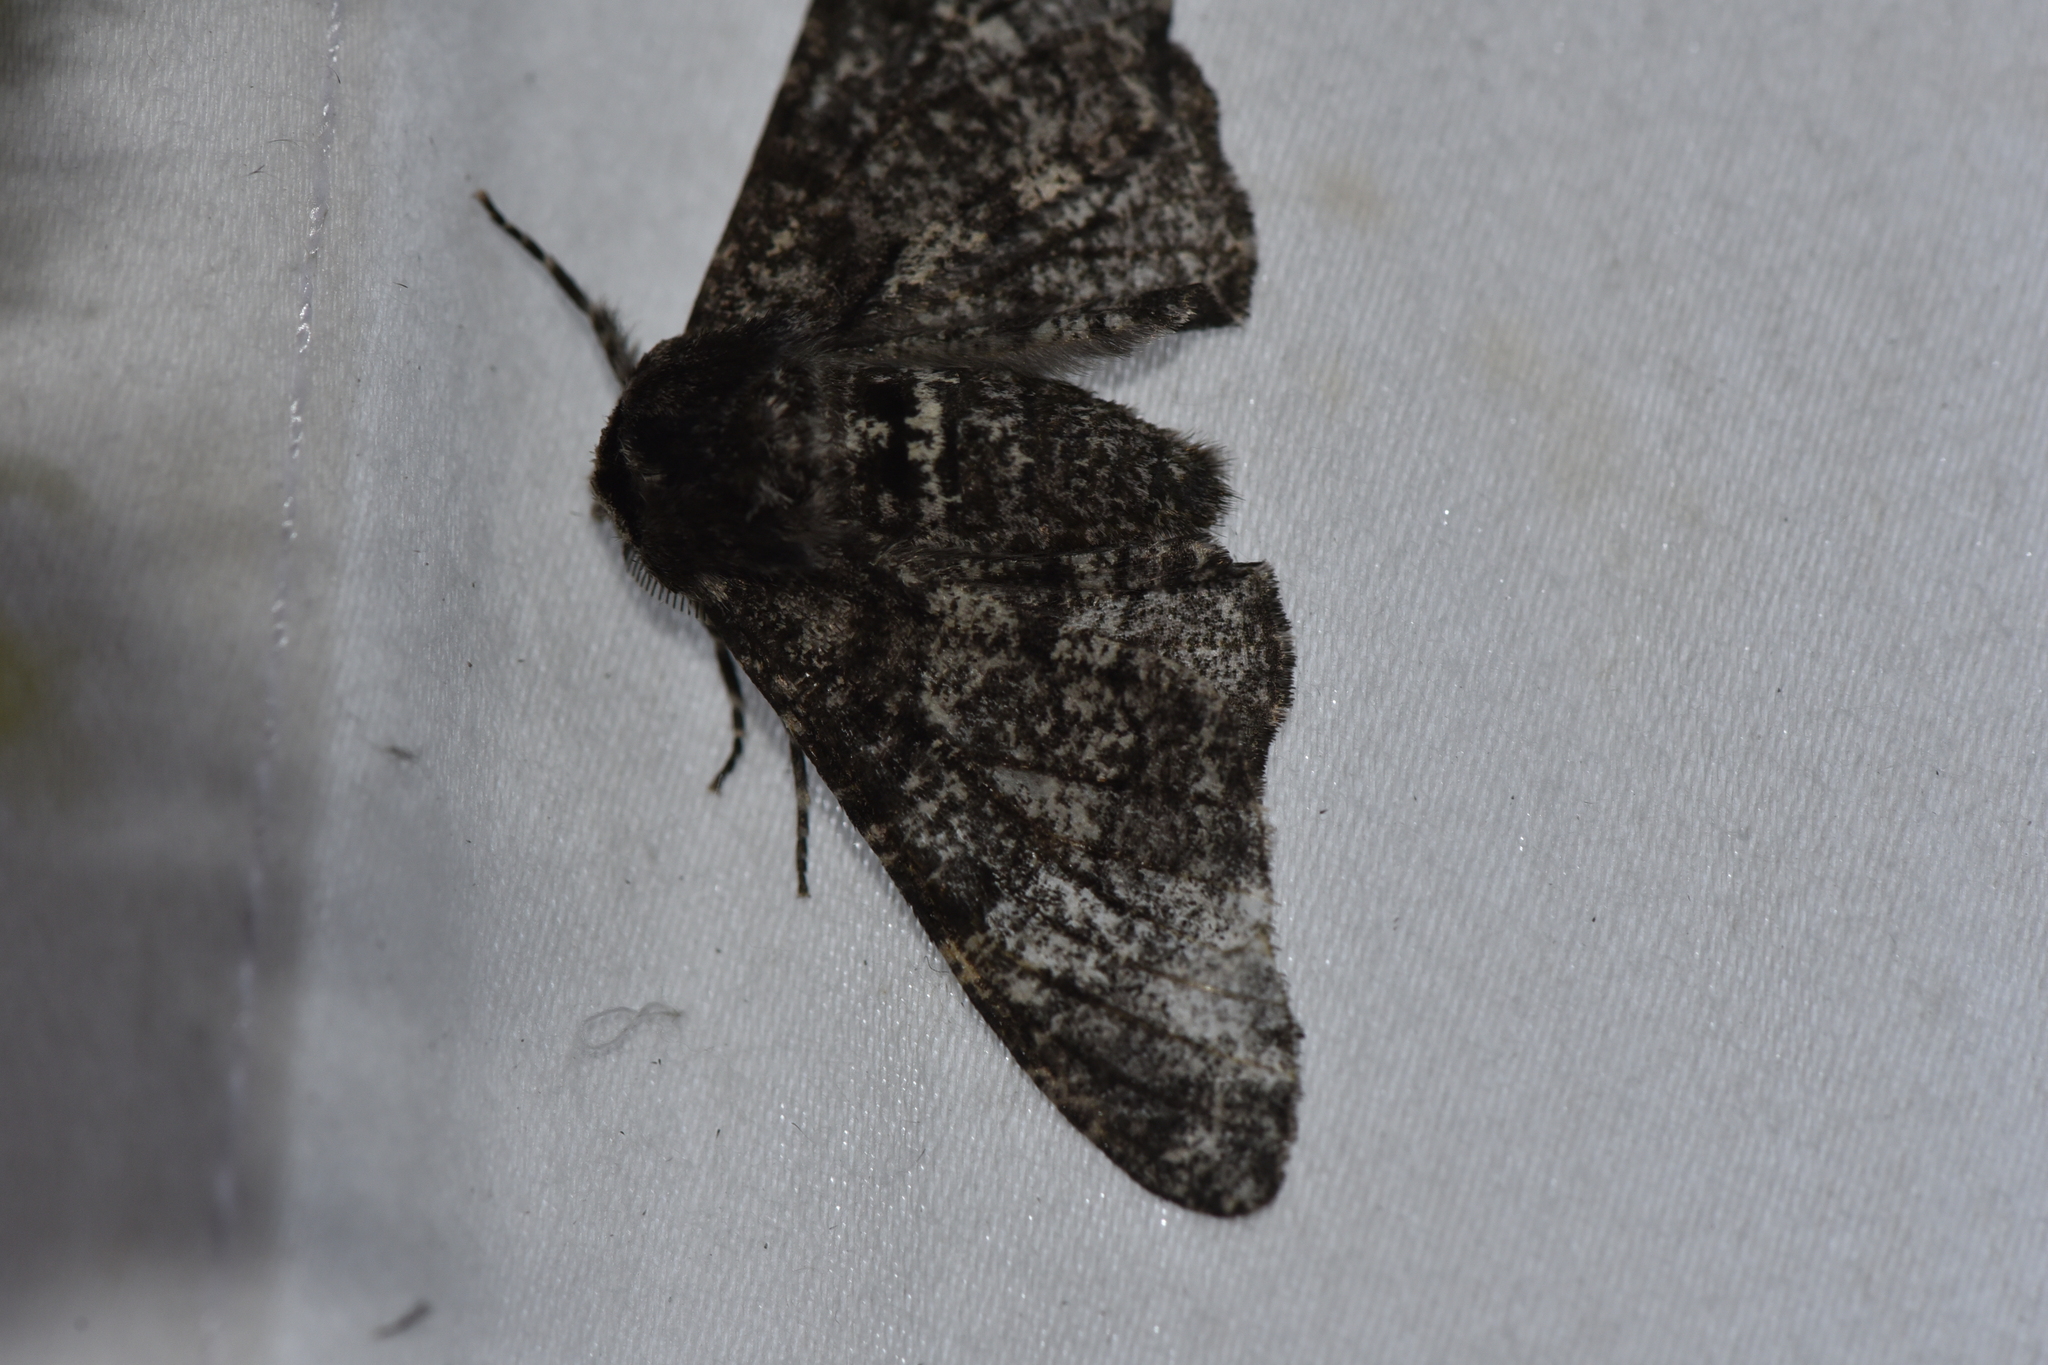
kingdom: Animalia
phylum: Arthropoda
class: Insecta
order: Lepidoptera
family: Geometridae
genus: Biston
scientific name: Biston betularia
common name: Peppered moth
